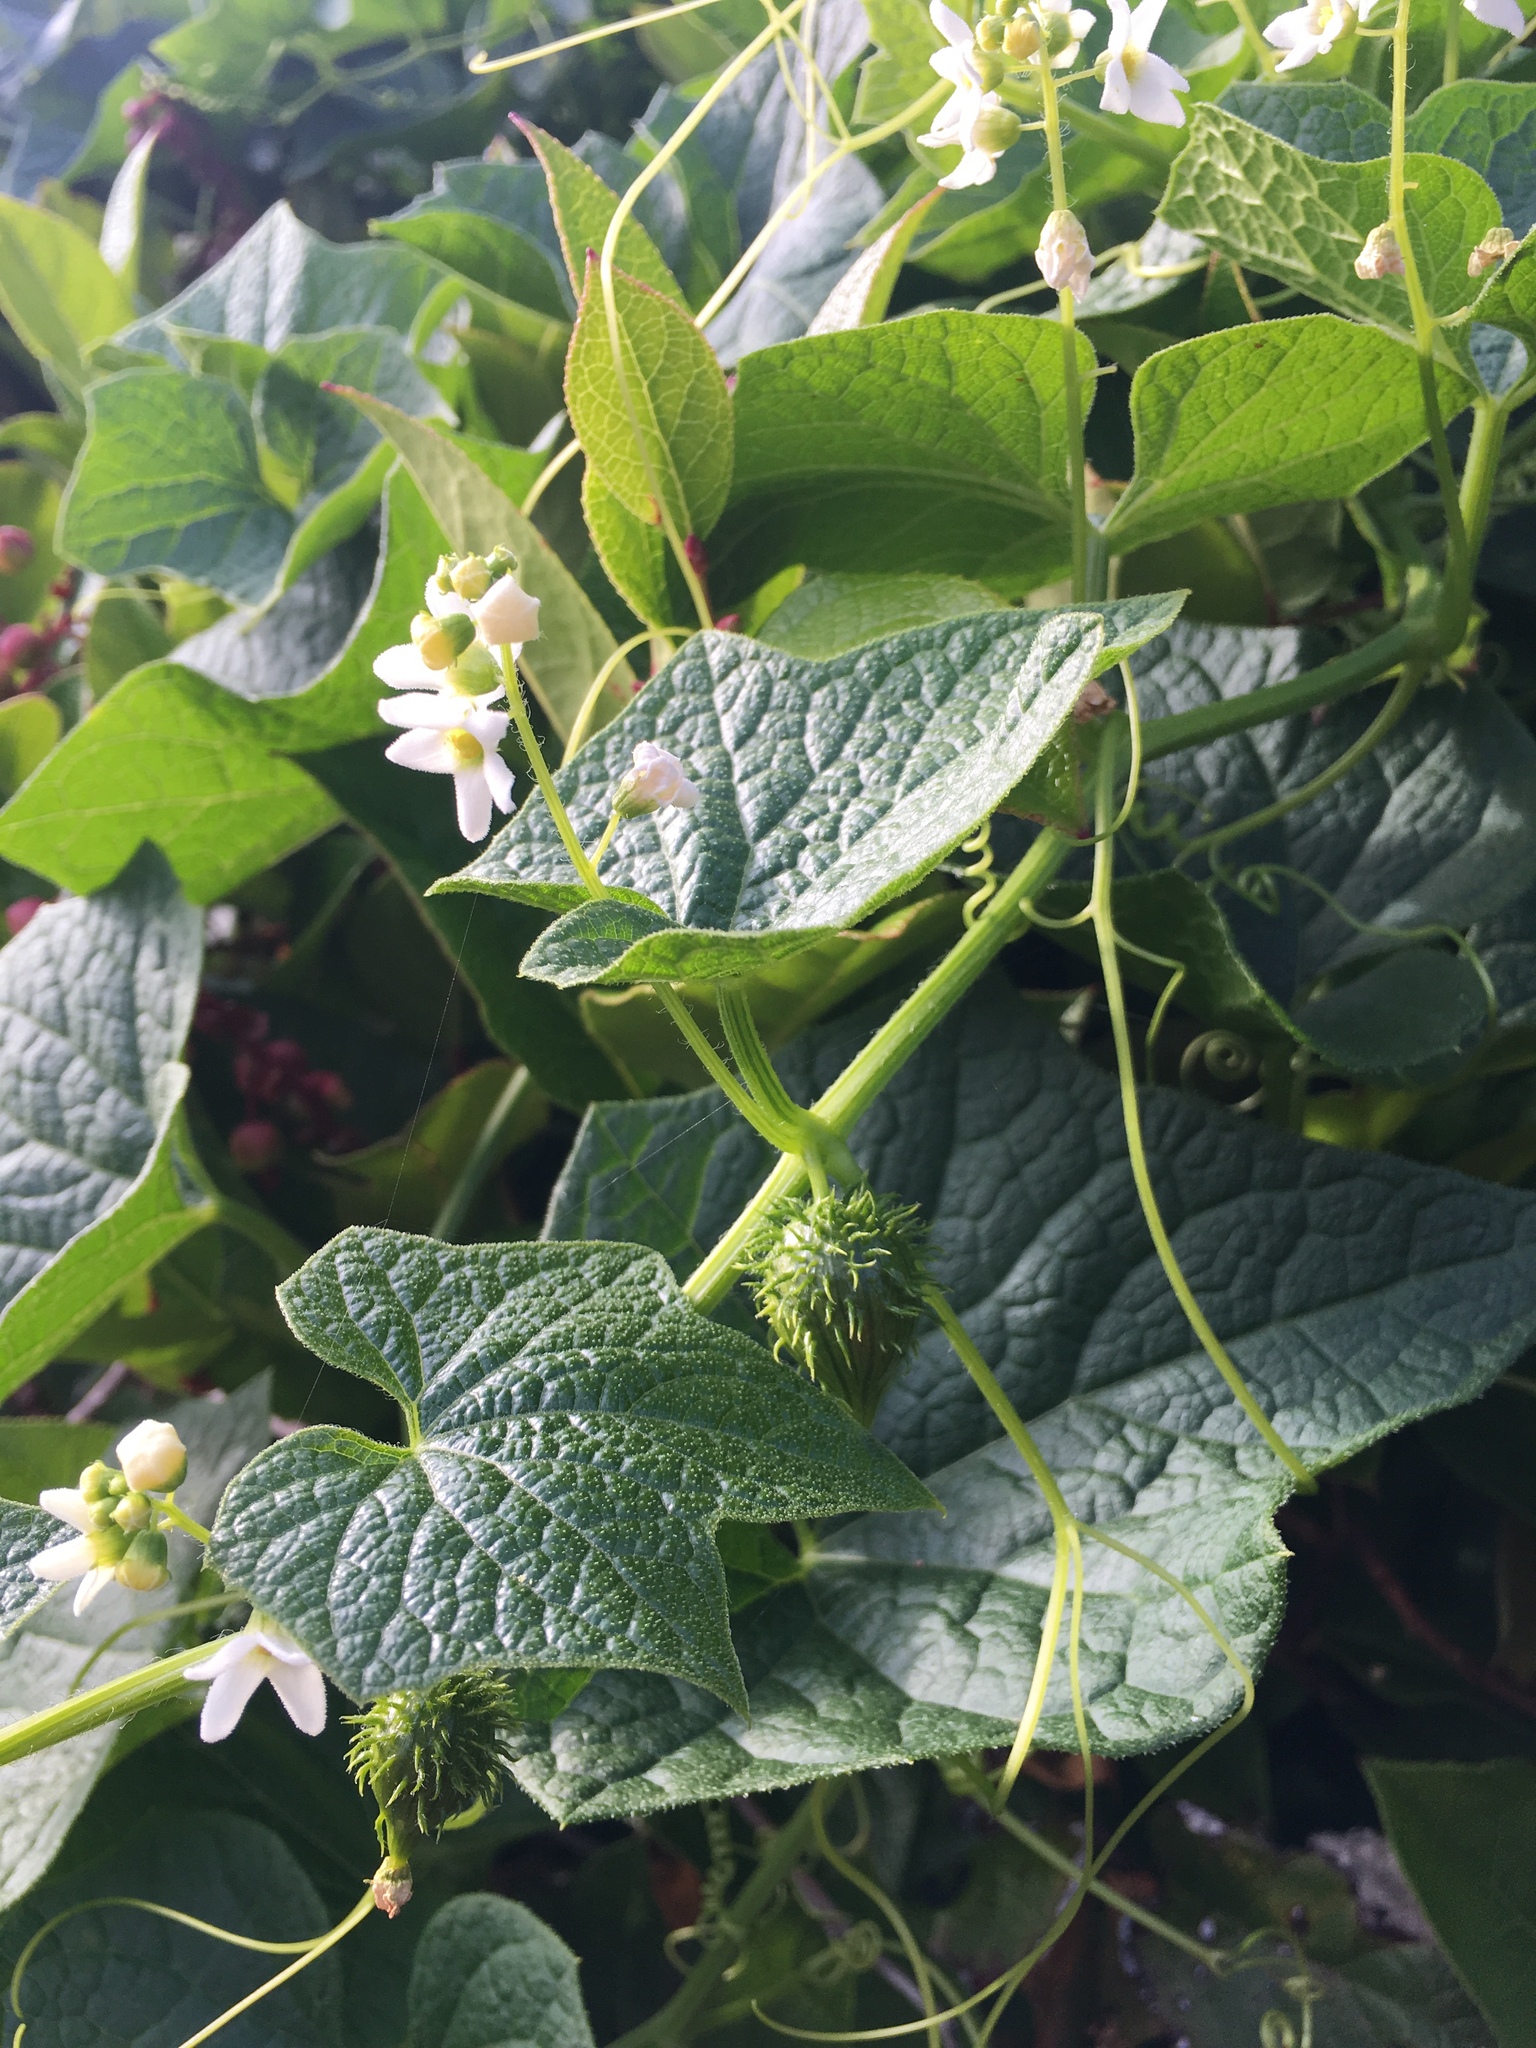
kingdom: Plantae
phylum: Tracheophyta
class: Magnoliopsida
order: Cucurbitales
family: Cucurbitaceae
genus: Marah
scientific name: Marah oregana
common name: Coastal manroot
